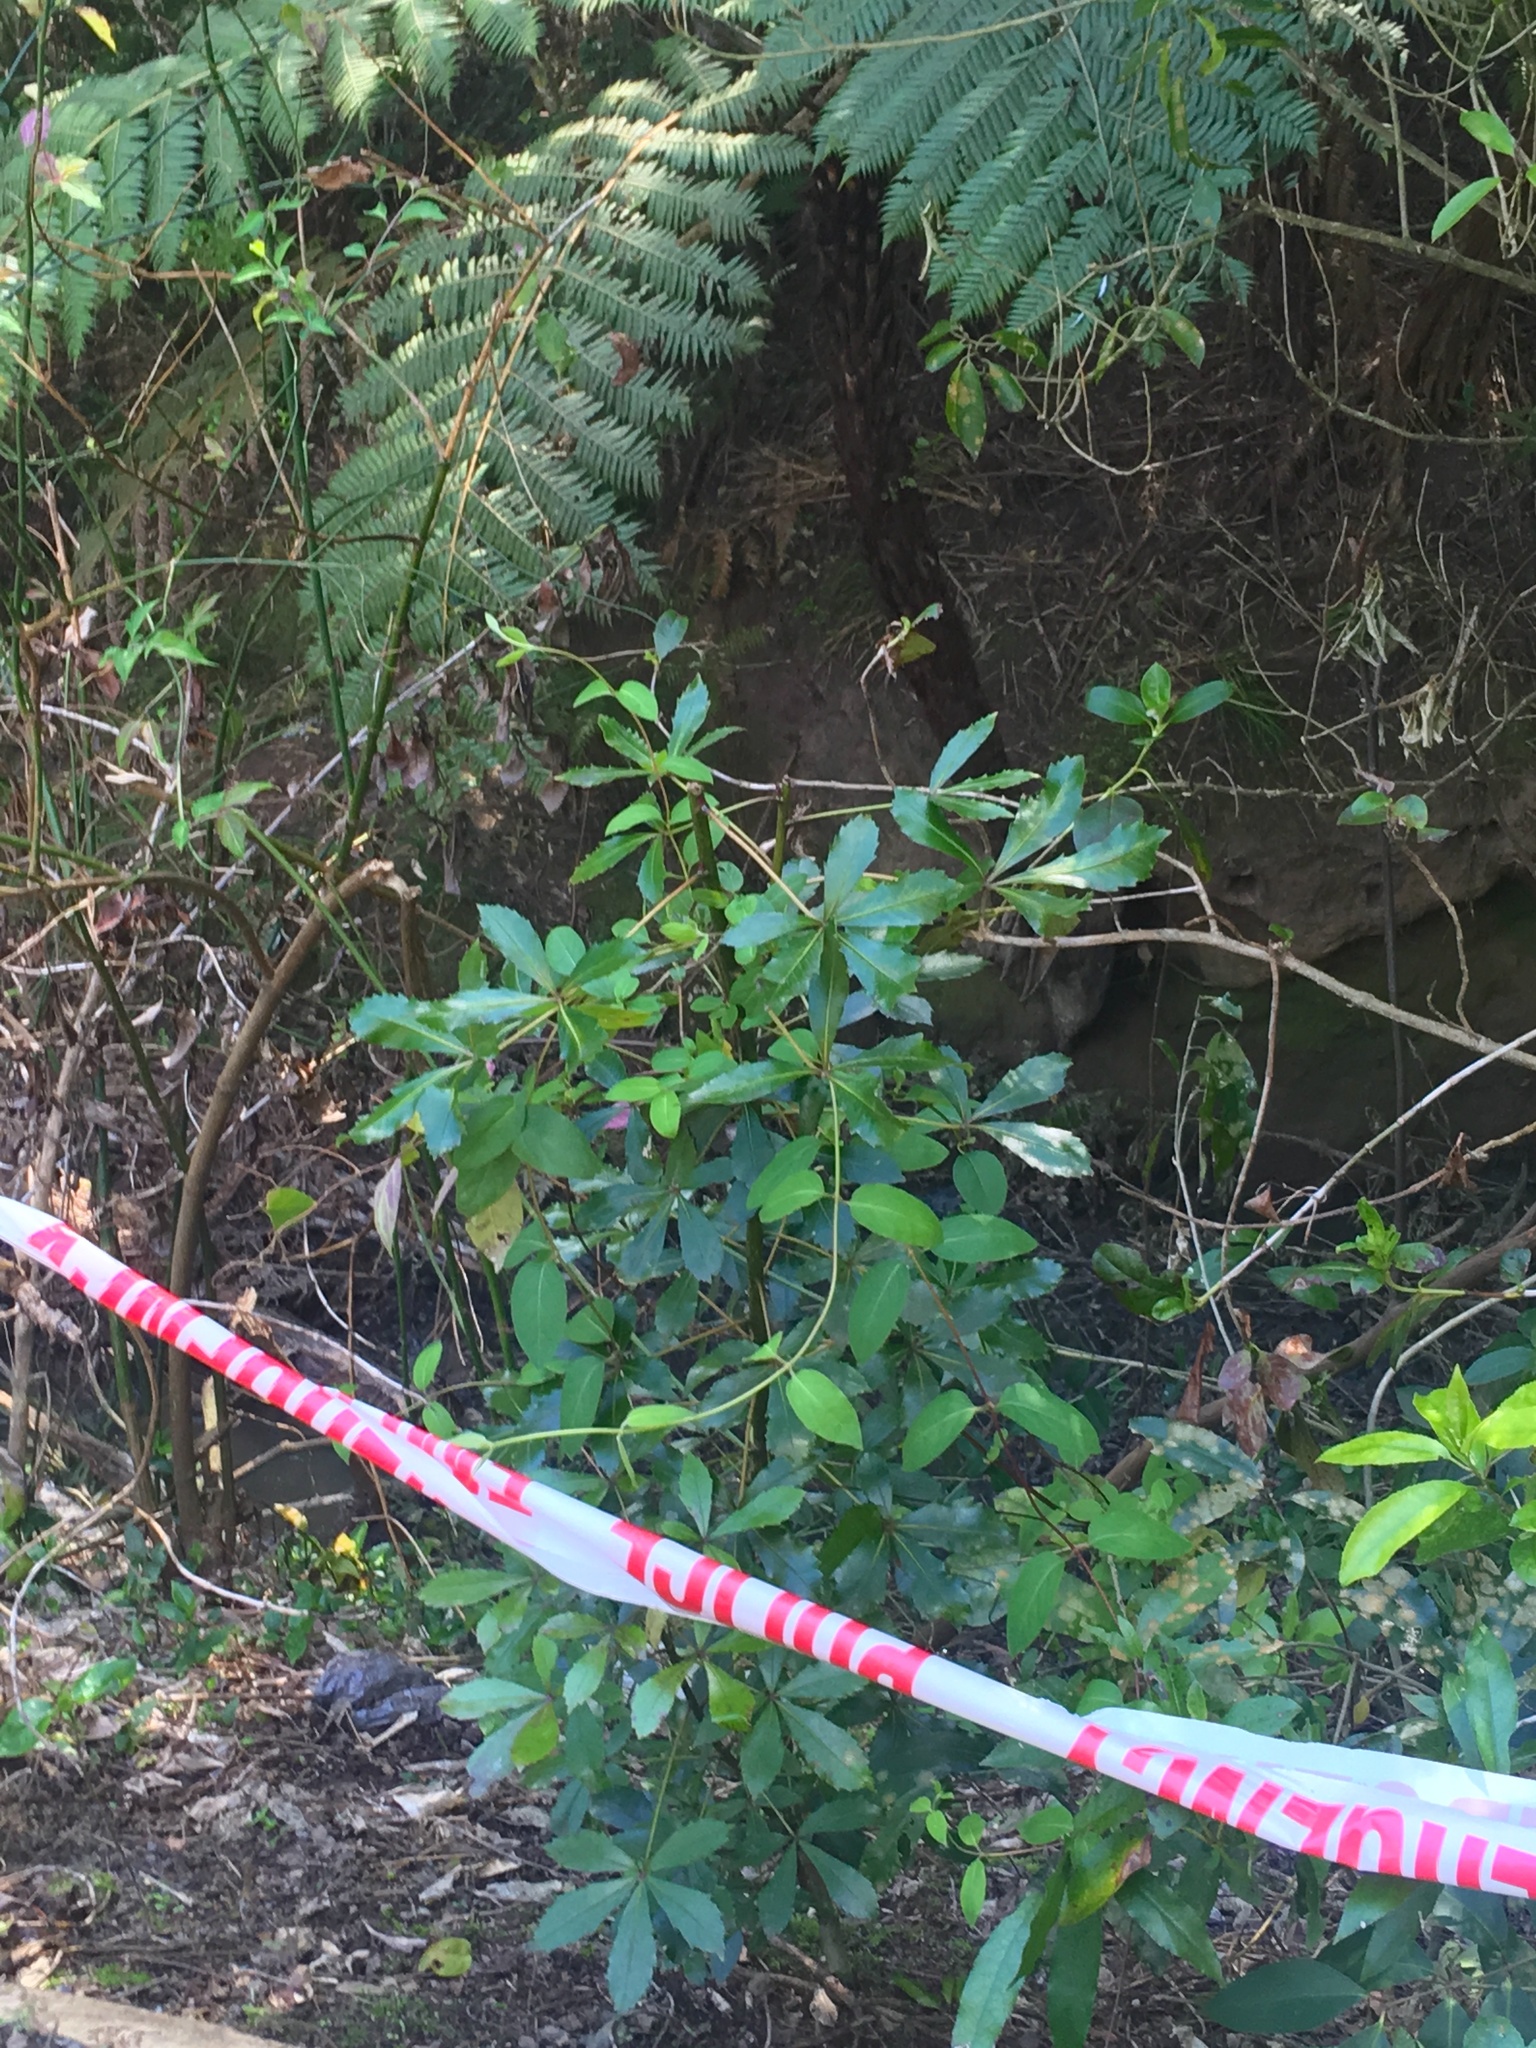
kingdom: Plantae
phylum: Tracheophyta
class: Magnoliopsida
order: Dipsacales
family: Caprifoliaceae
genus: Lonicera
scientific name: Lonicera japonica
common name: Japanese honeysuckle
